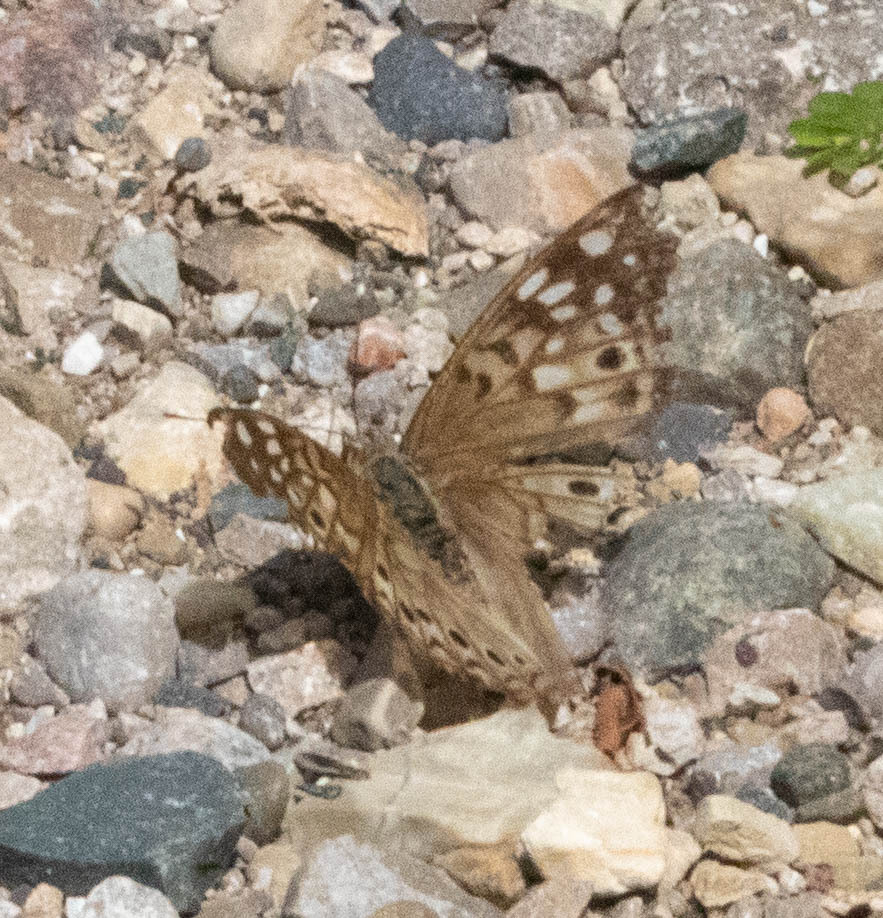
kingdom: Animalia
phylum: Arthropoda
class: Insecta
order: Lepidoptera
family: Nymphalidae
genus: Asterocampa
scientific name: Asterocampa celtis
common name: Hackberry emperor
